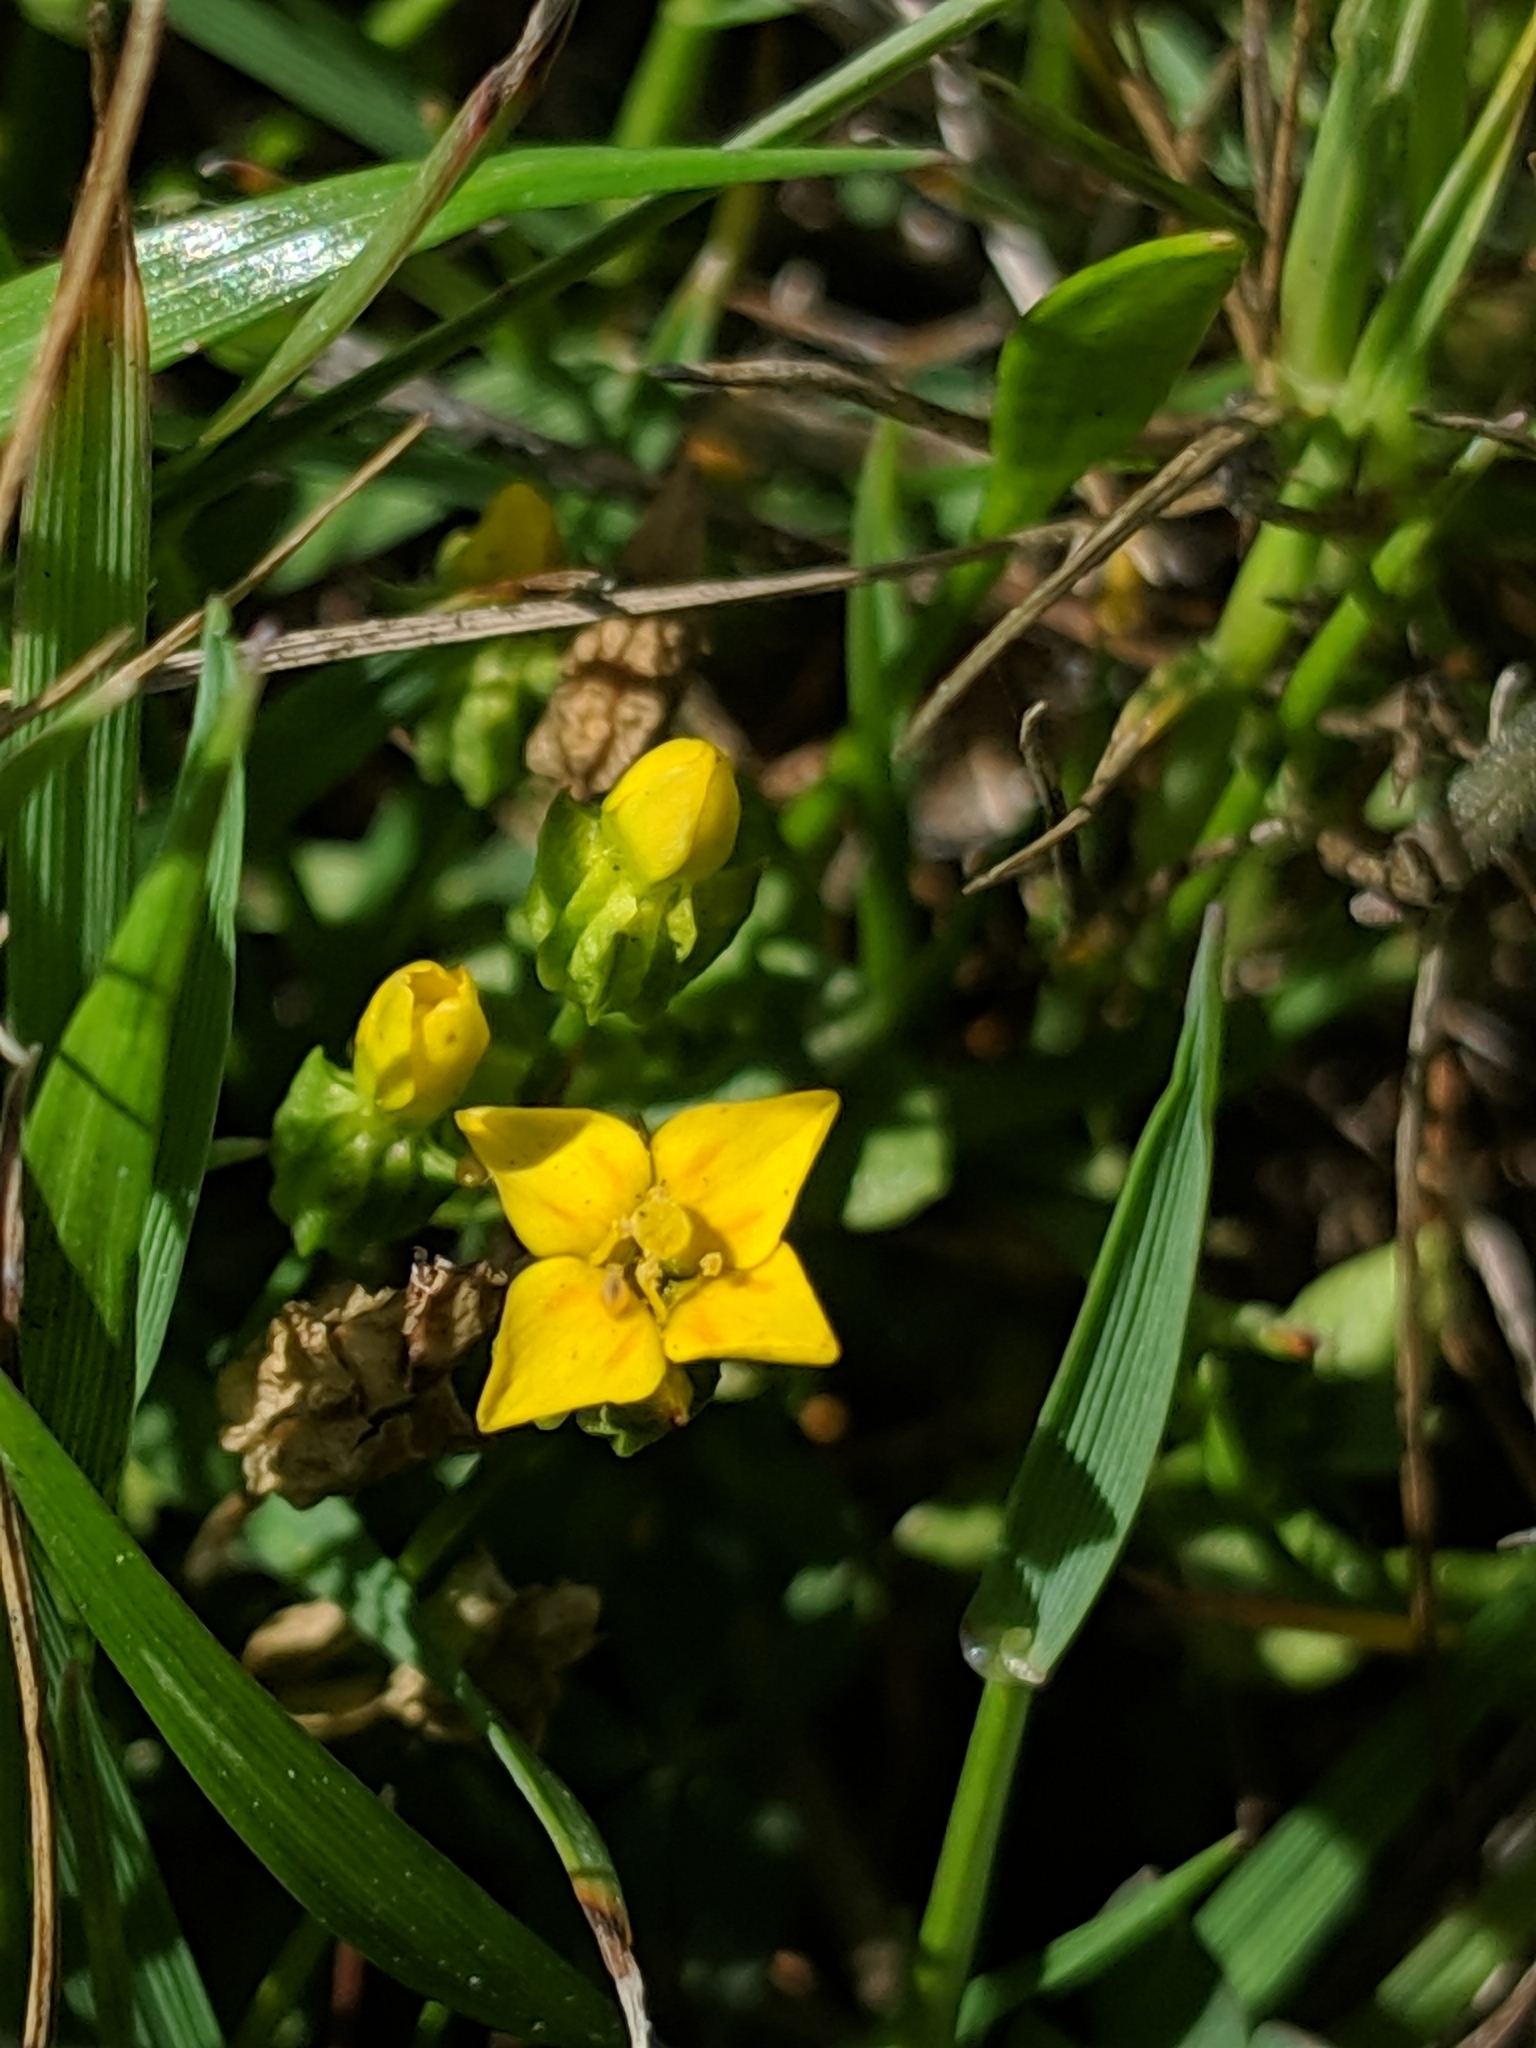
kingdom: Plantae
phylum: Tracheophyta
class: Magnoliopsida
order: Gentianales
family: Gentianaceae
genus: Microcala
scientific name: Microcala quadrangularis
